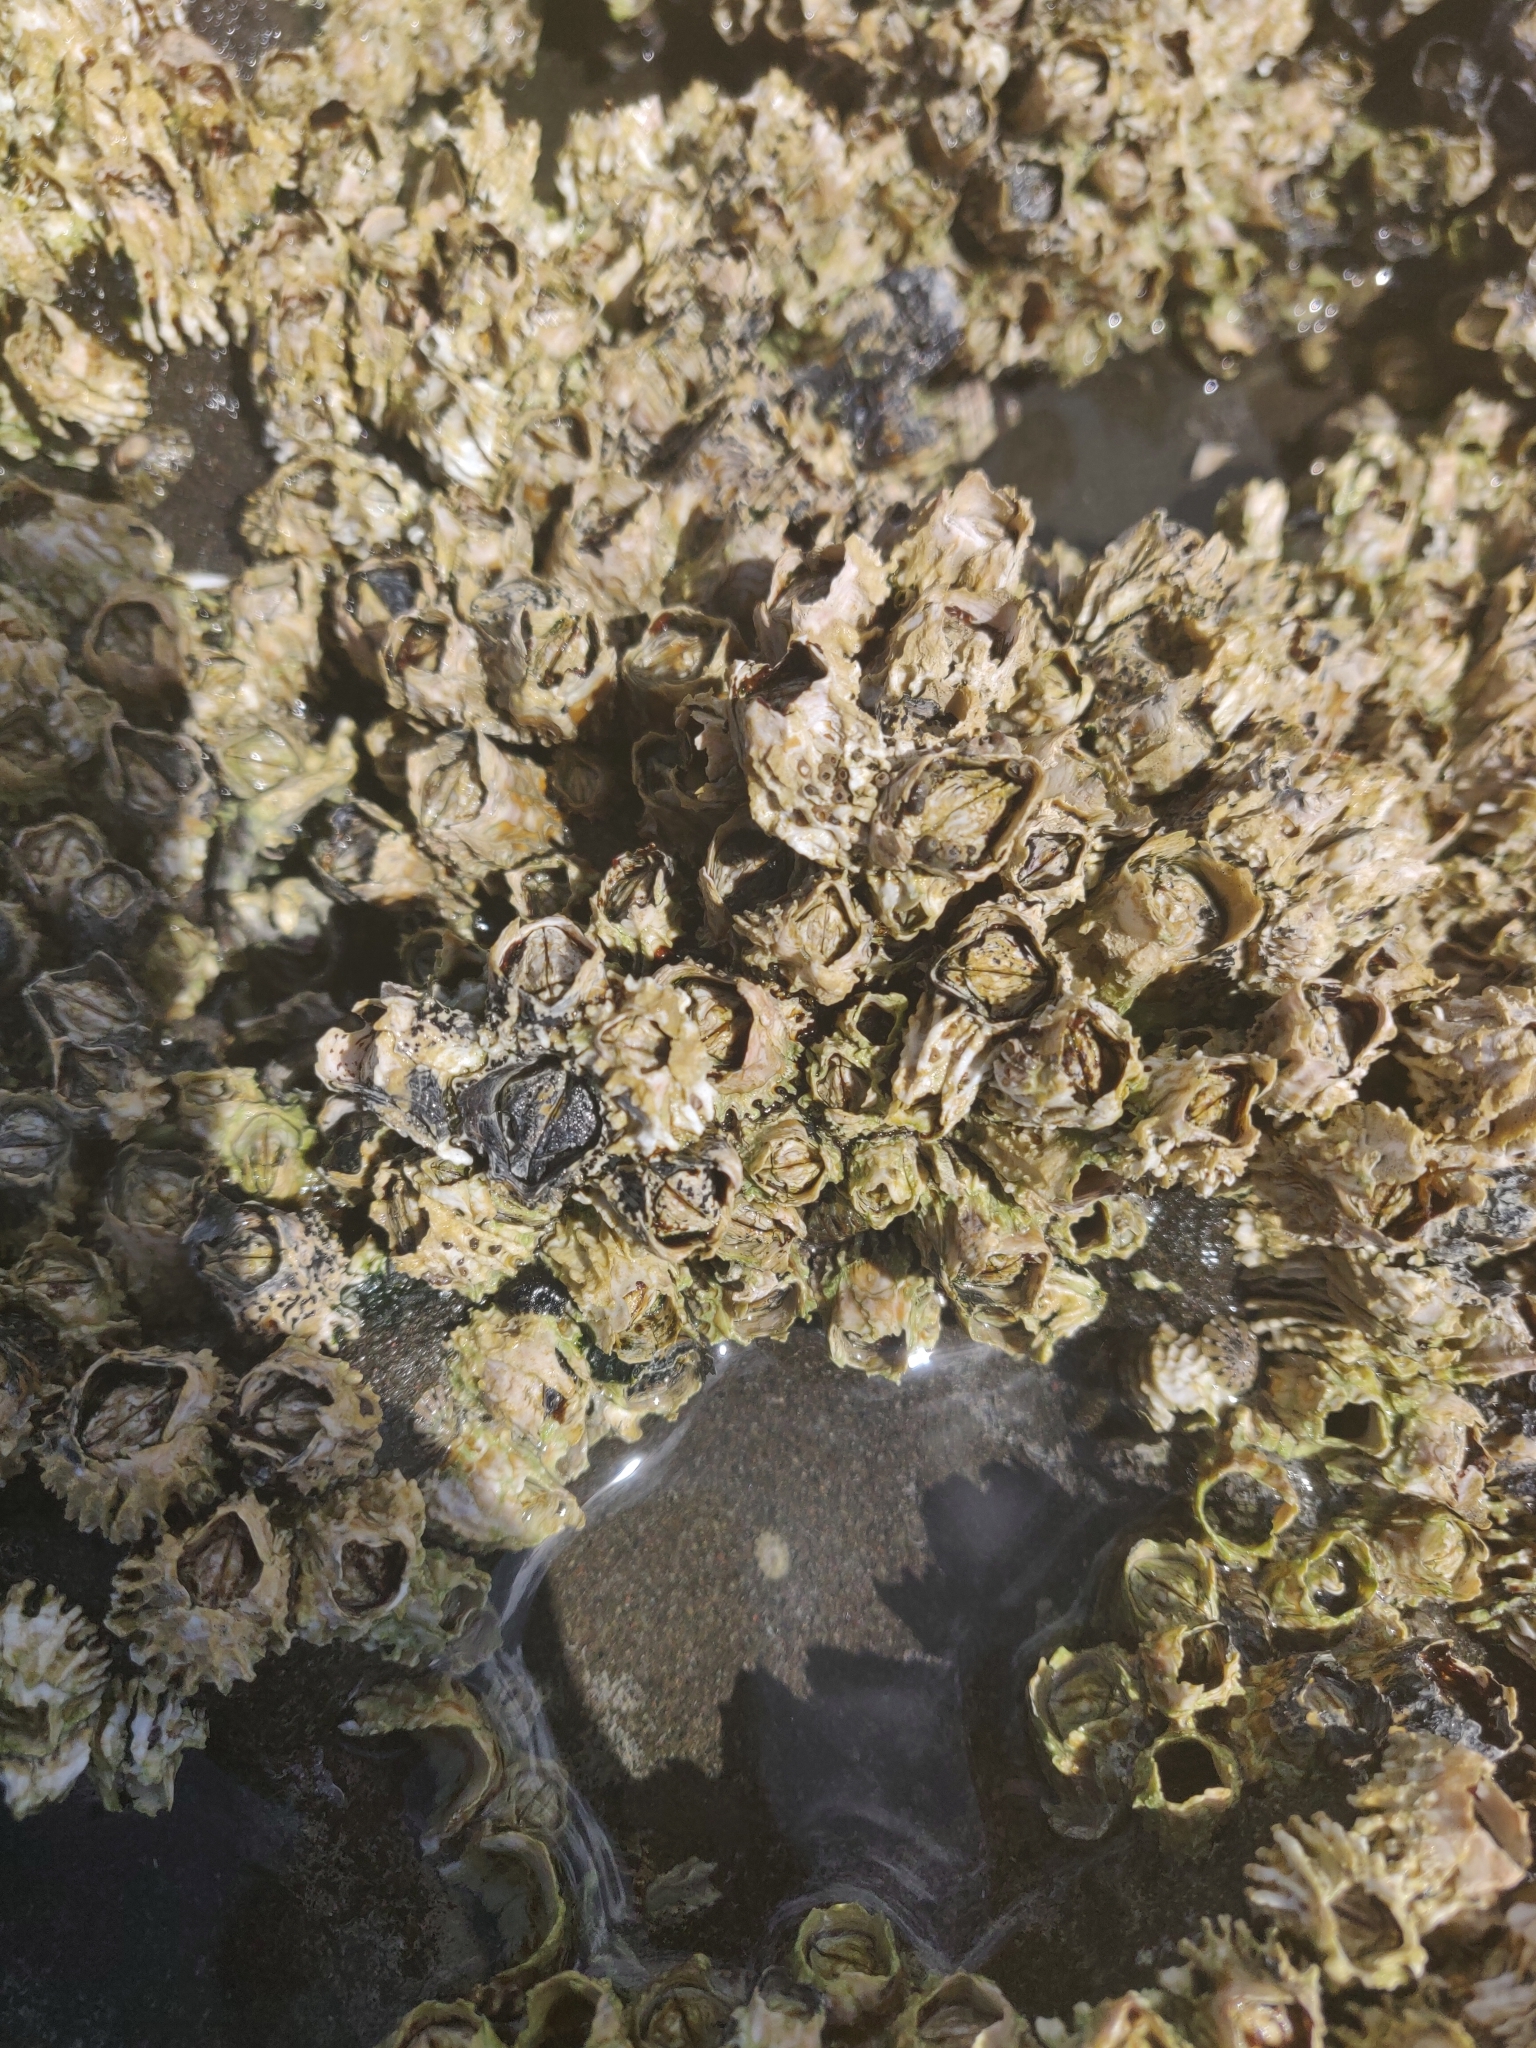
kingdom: Animalia
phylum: Arthropoda
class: Maxillopoda
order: Sessilia
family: Tetraclitidae
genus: Epopella
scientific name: Epopella plicata
